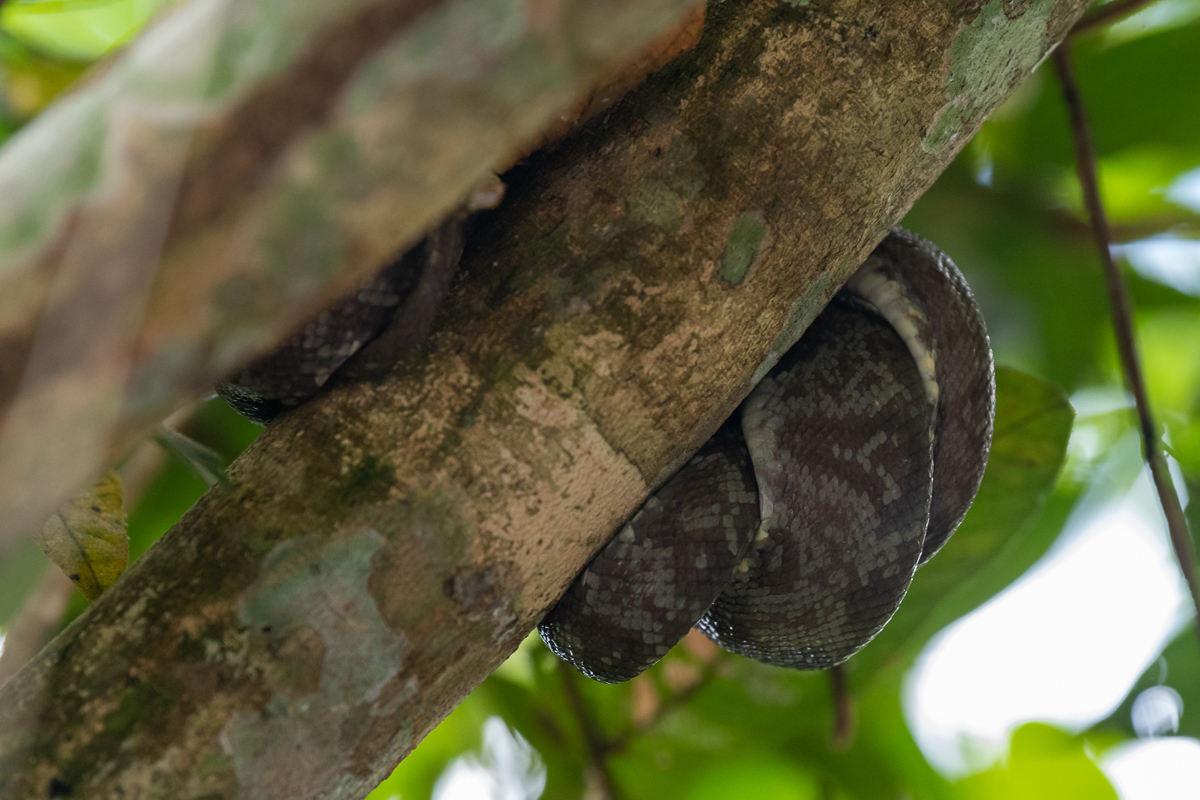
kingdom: Animalia
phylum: Chordata
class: Squamata
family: Boidae
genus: Corallus
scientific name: Corallus hortulana
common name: Garden tree boa
